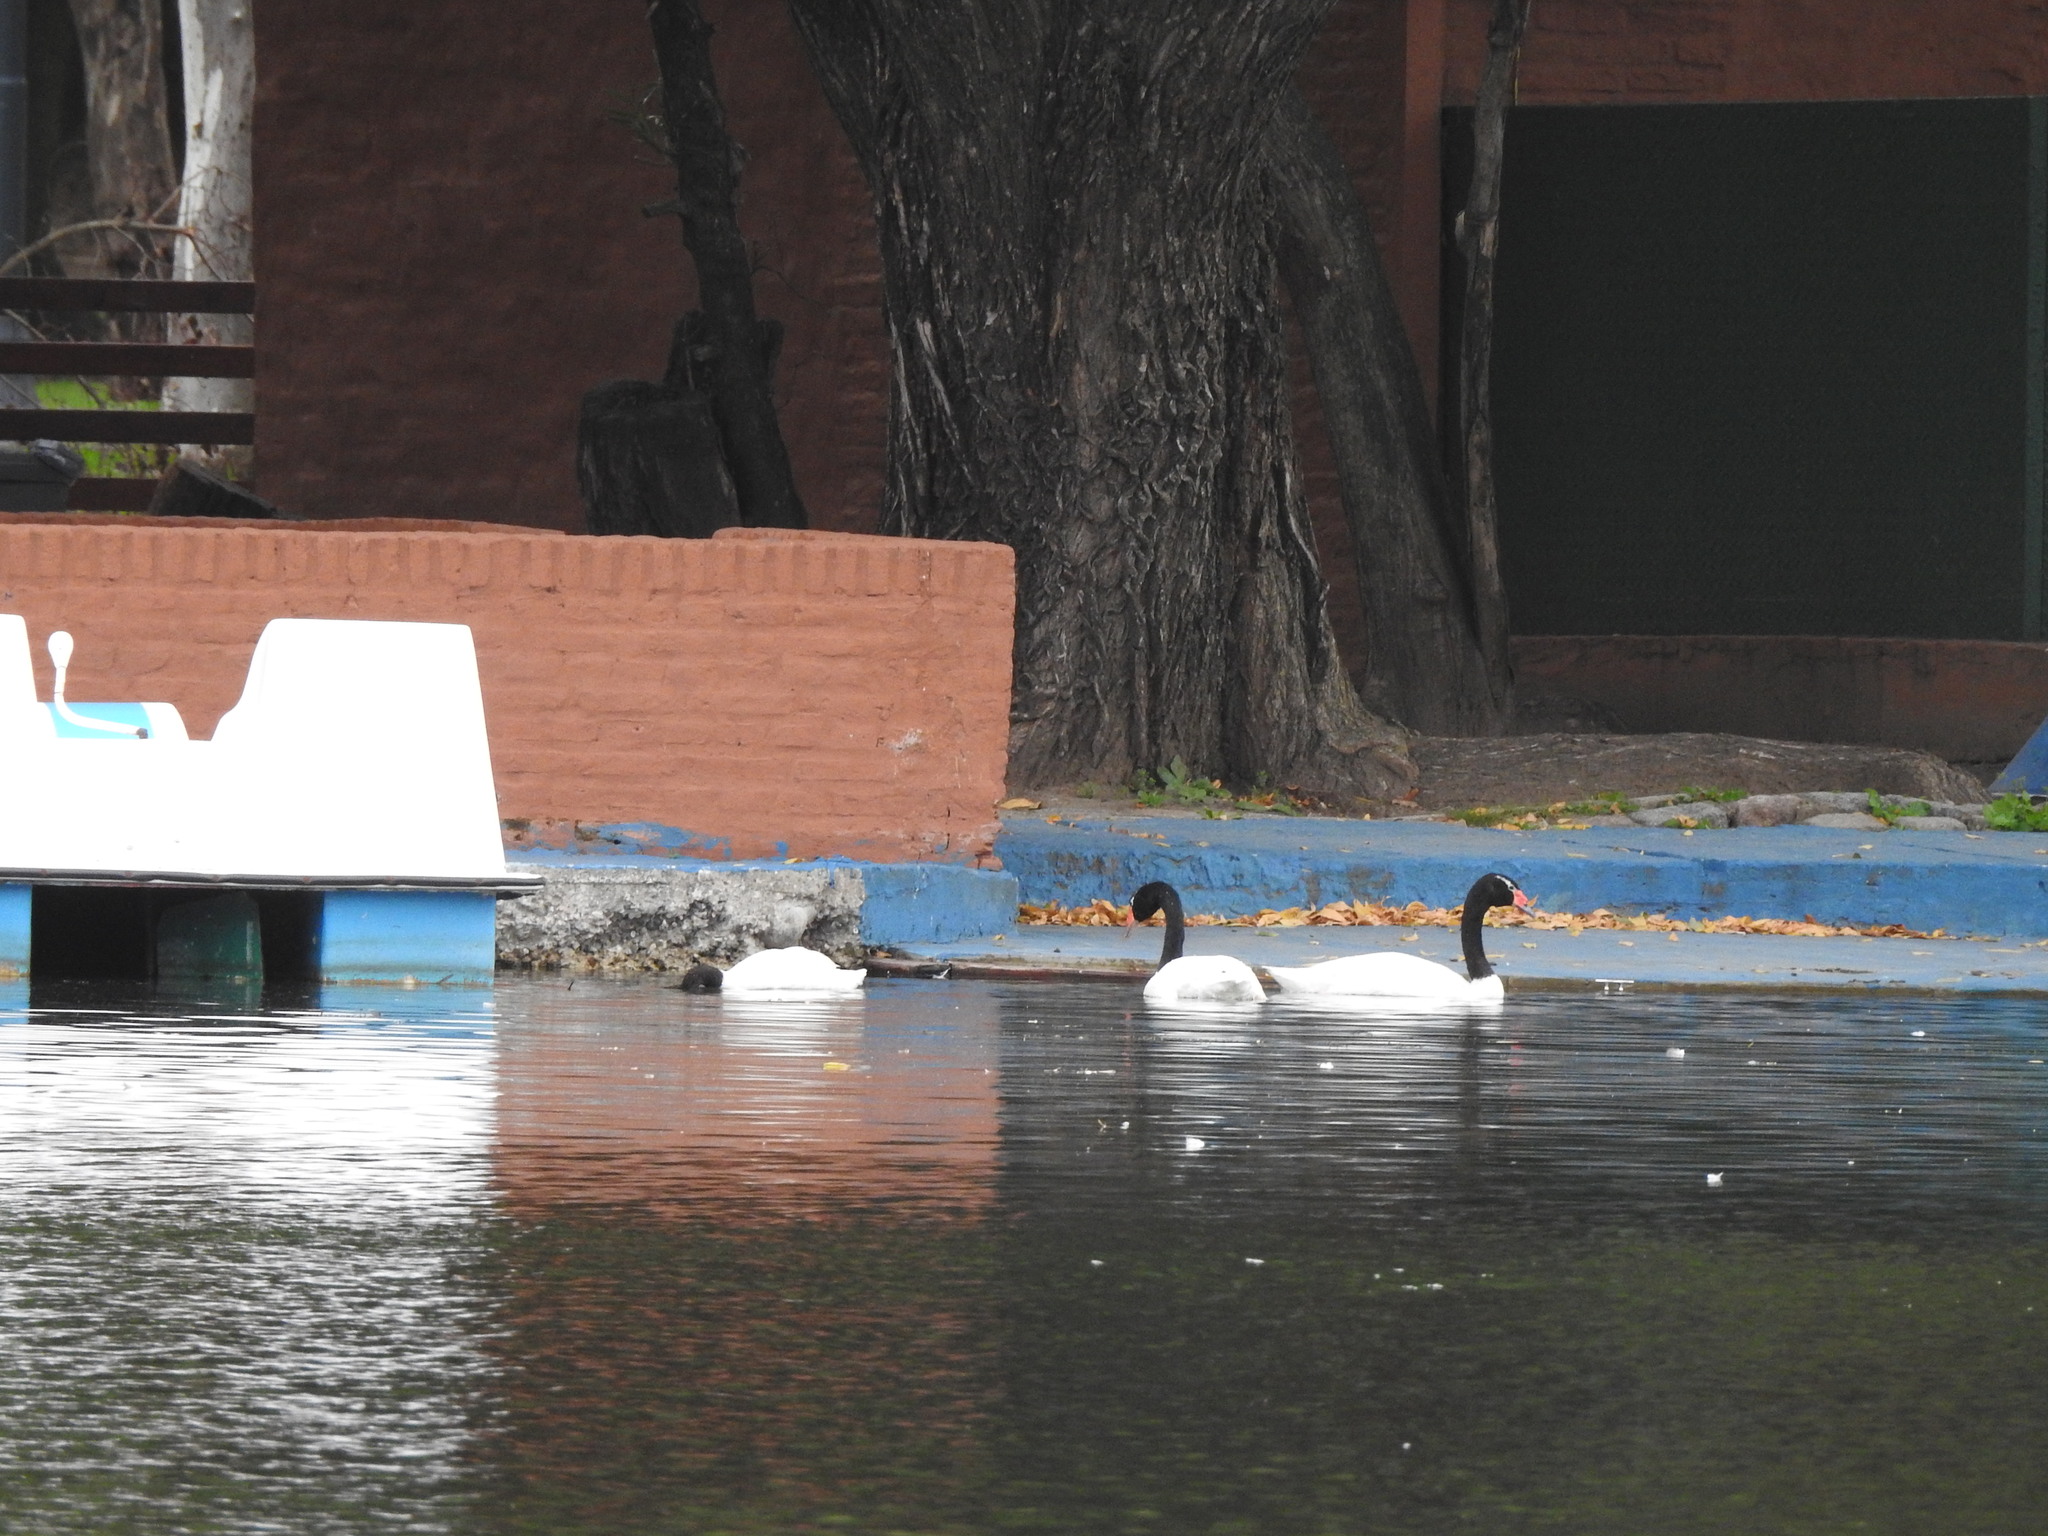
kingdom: Animalia
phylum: Chordata
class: Aves
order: Anseriformes
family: Anatidae
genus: Cygnus
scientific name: Cygnus melancoryphus
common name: Black-necked swan
